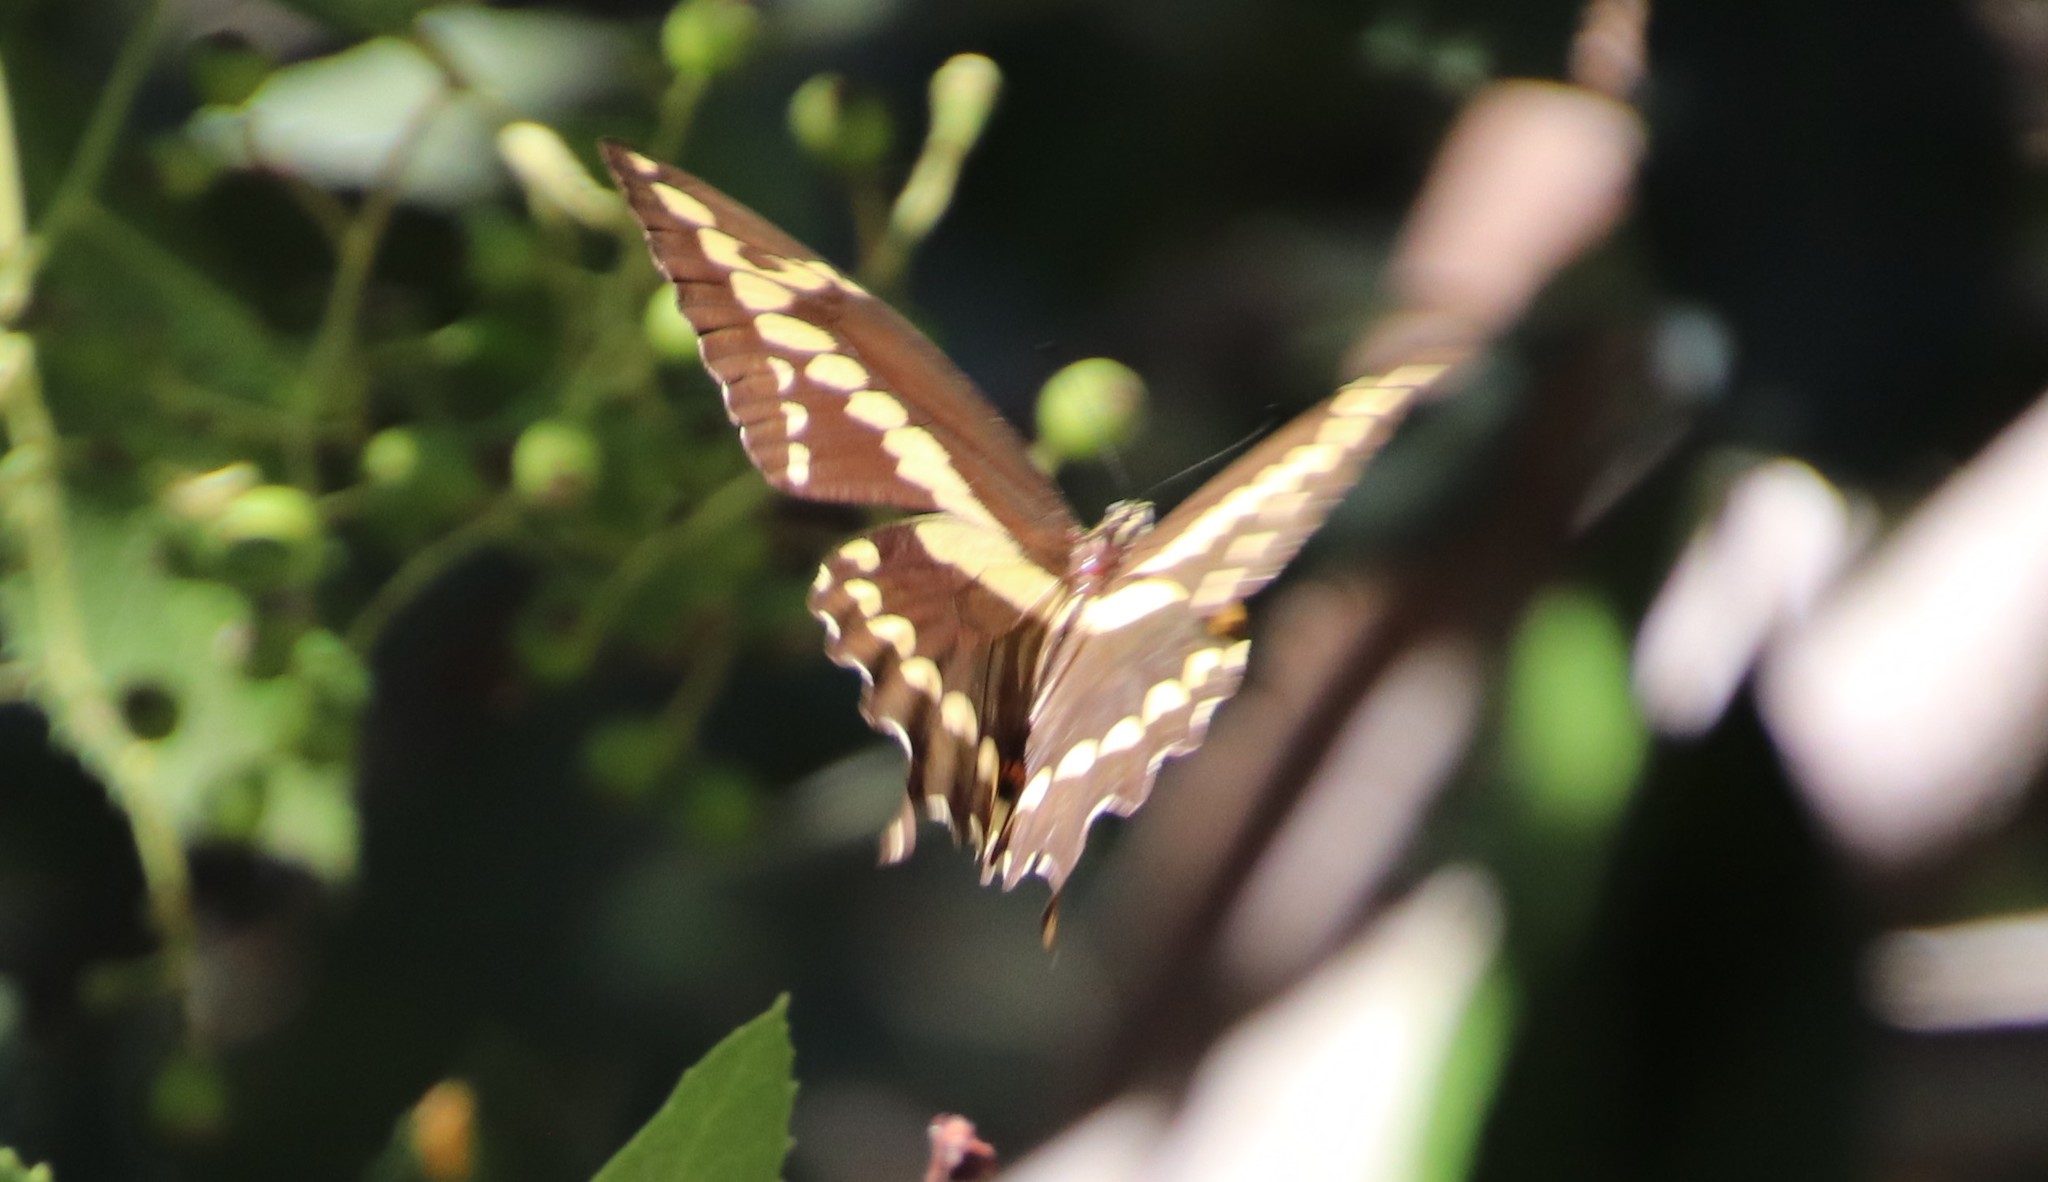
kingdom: Animalia
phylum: Arthropoda
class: Insecta
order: Lepidoptera
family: Papilionidae
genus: Papilio
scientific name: Papilio rumiko
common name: Western giant swallowtail
